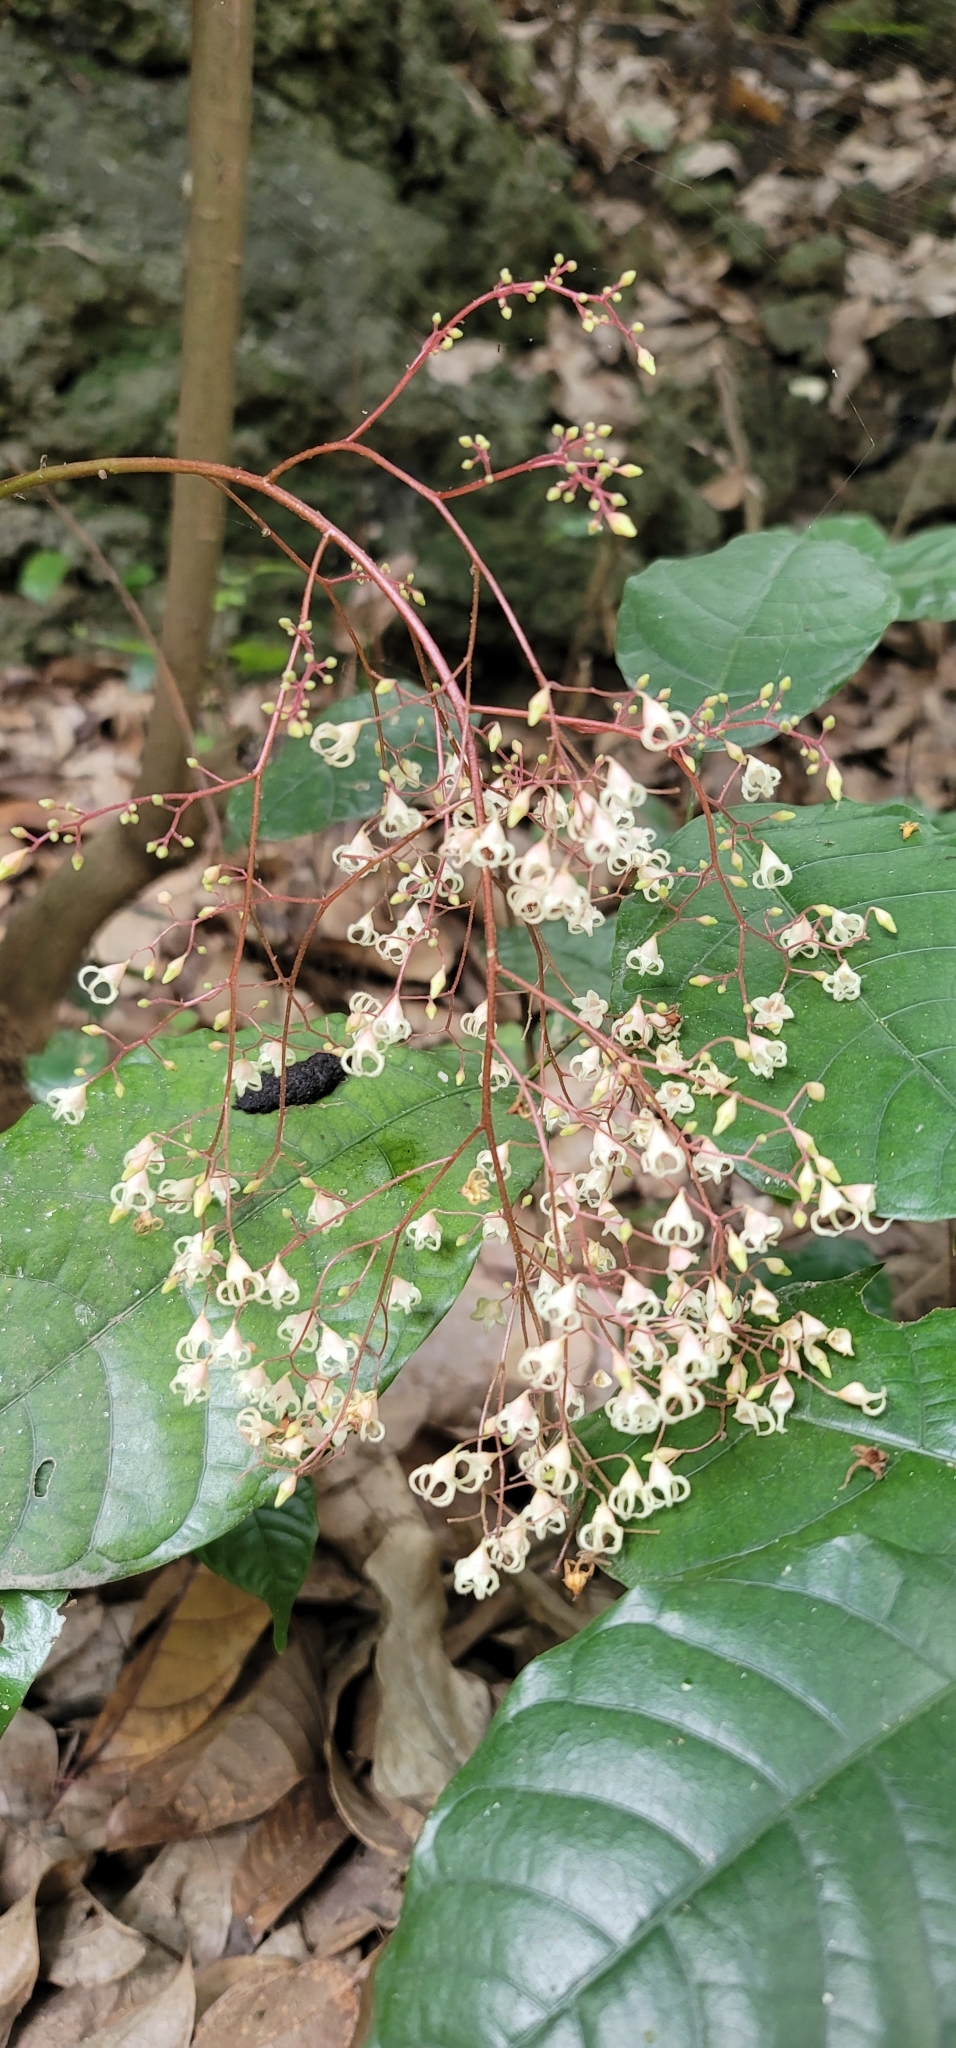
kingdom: Plantae
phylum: Tracheophyta
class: Magnoliopsida
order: Malvales
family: Malvaceae
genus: Sterculia
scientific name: Sterculia monosperma
